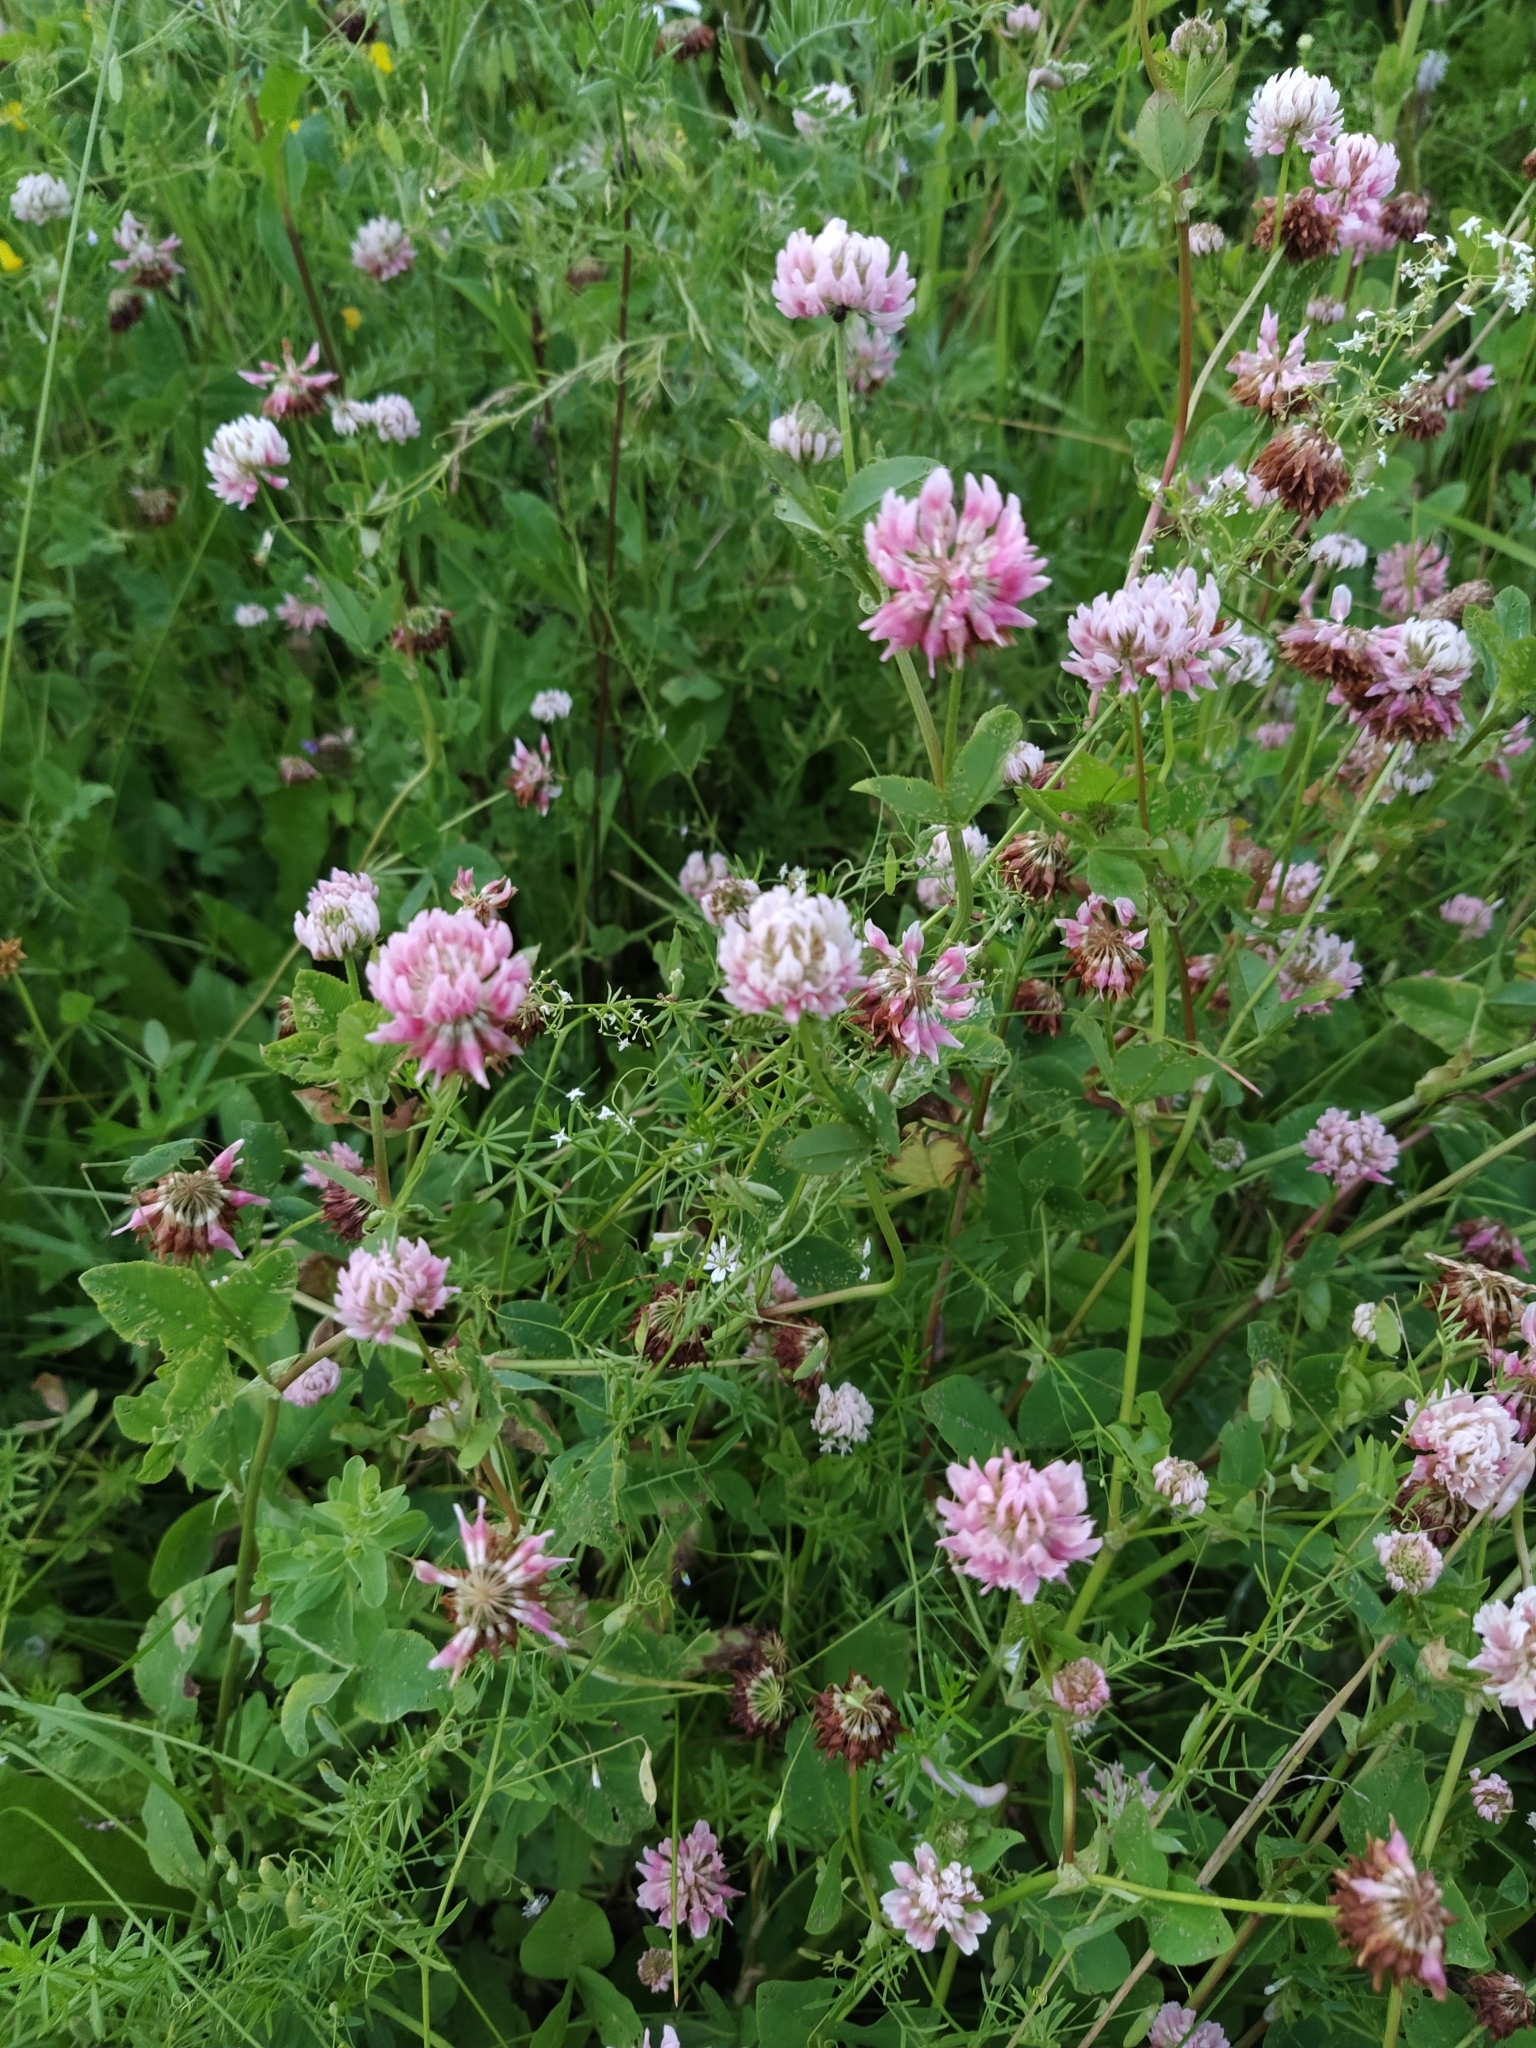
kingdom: Plantae
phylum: Tracheophyta
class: Magnoliopsida
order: Fabales
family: Fabaceae
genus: Trifolium
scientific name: Trifolium hybridum
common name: Alsike clover
